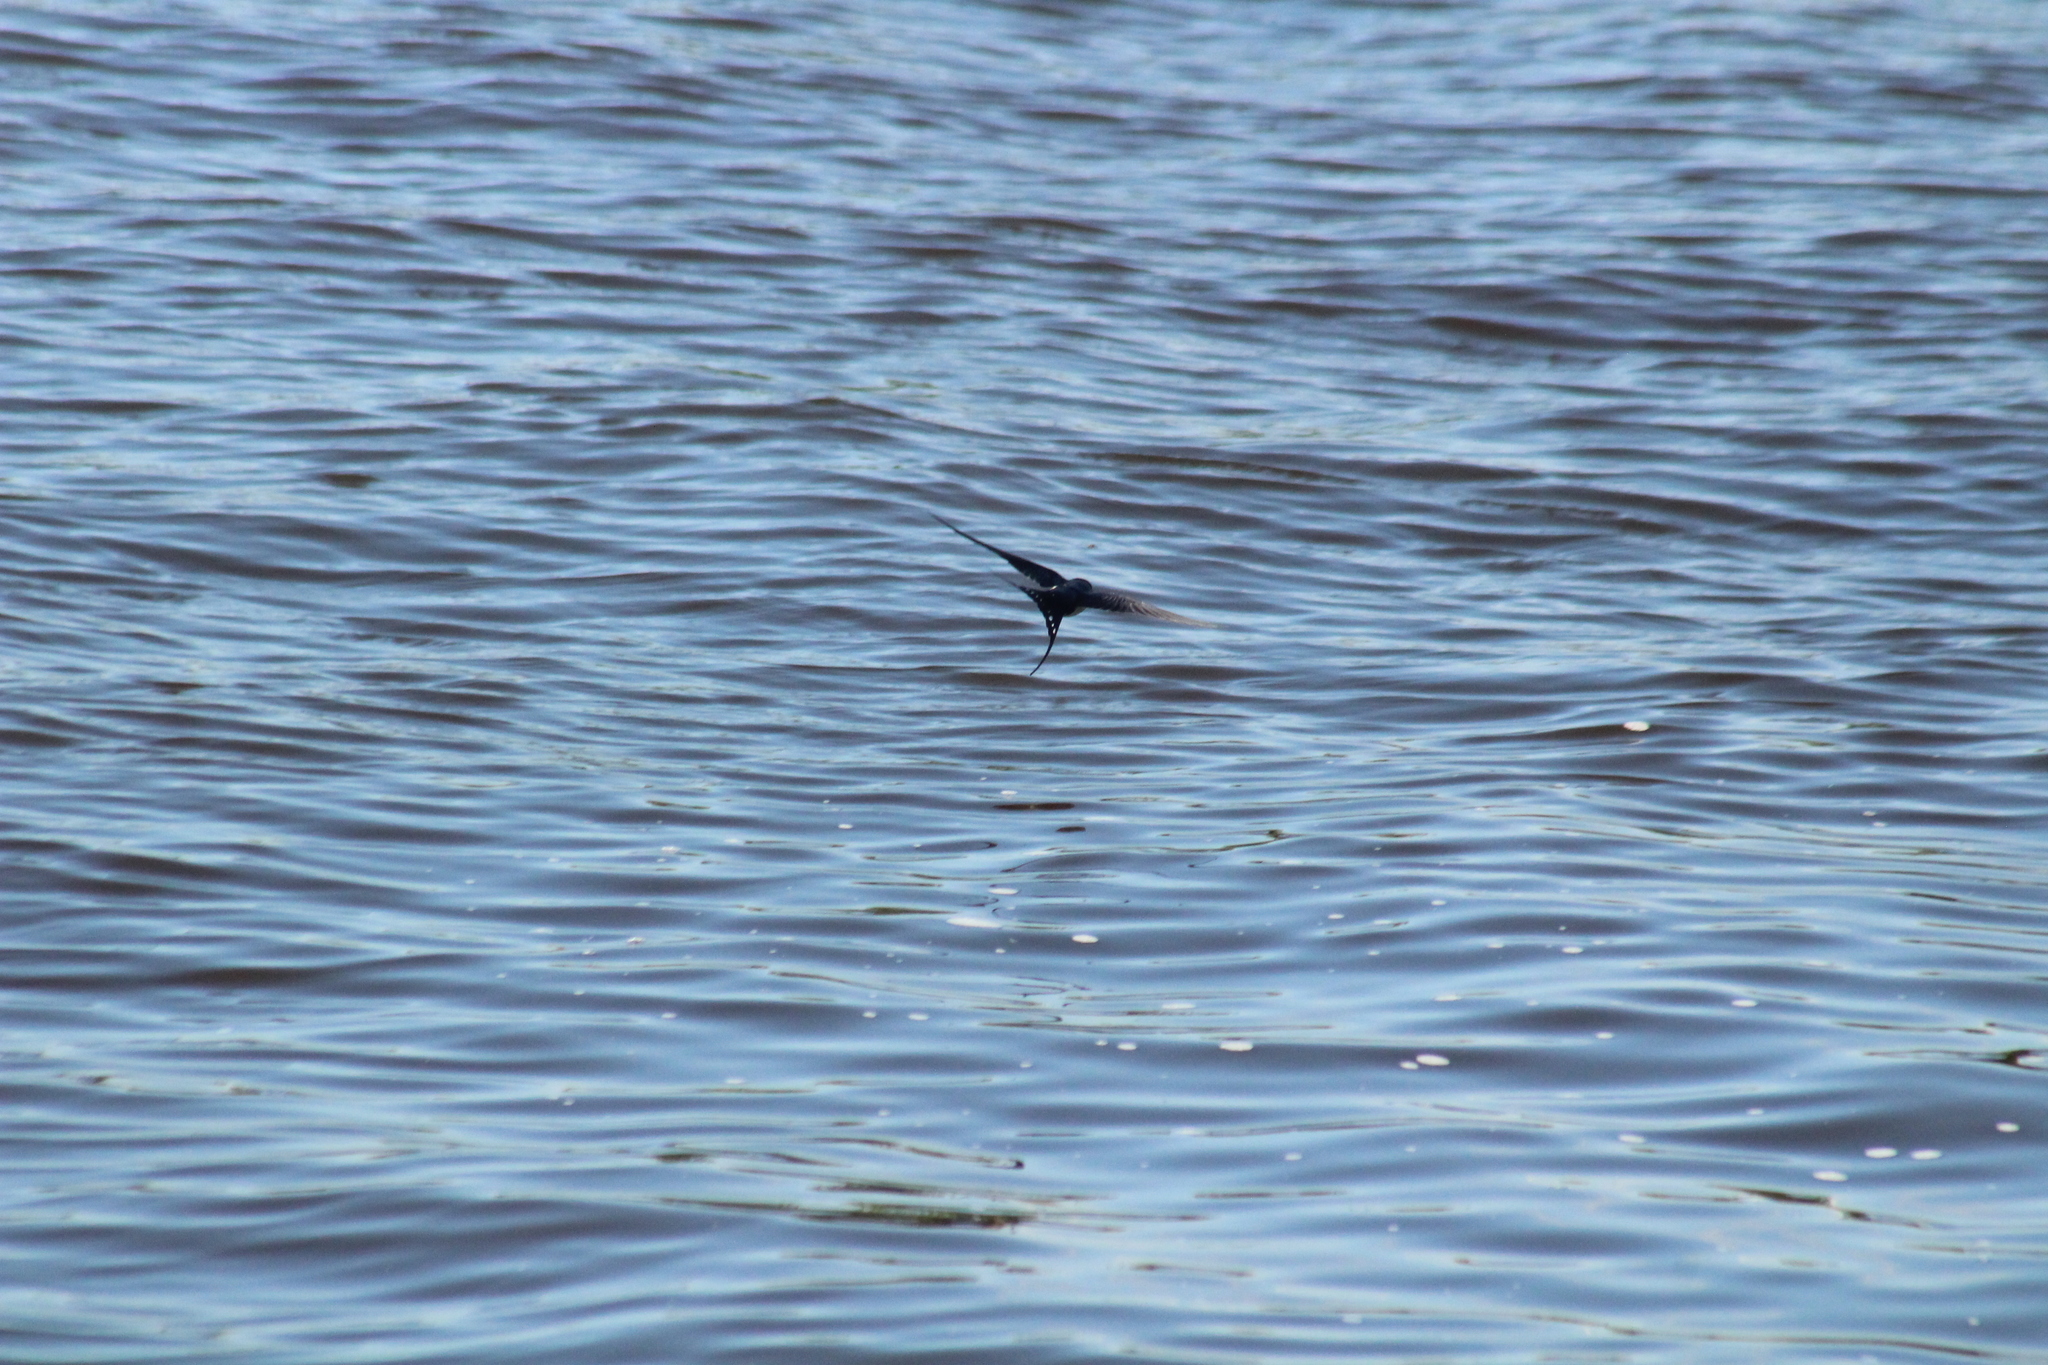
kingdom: Animalia
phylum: Chordata
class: Aves
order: Passeriformes
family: Hirundinidae
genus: Hirundo
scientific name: Hirundo rustica
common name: Barn swallow
